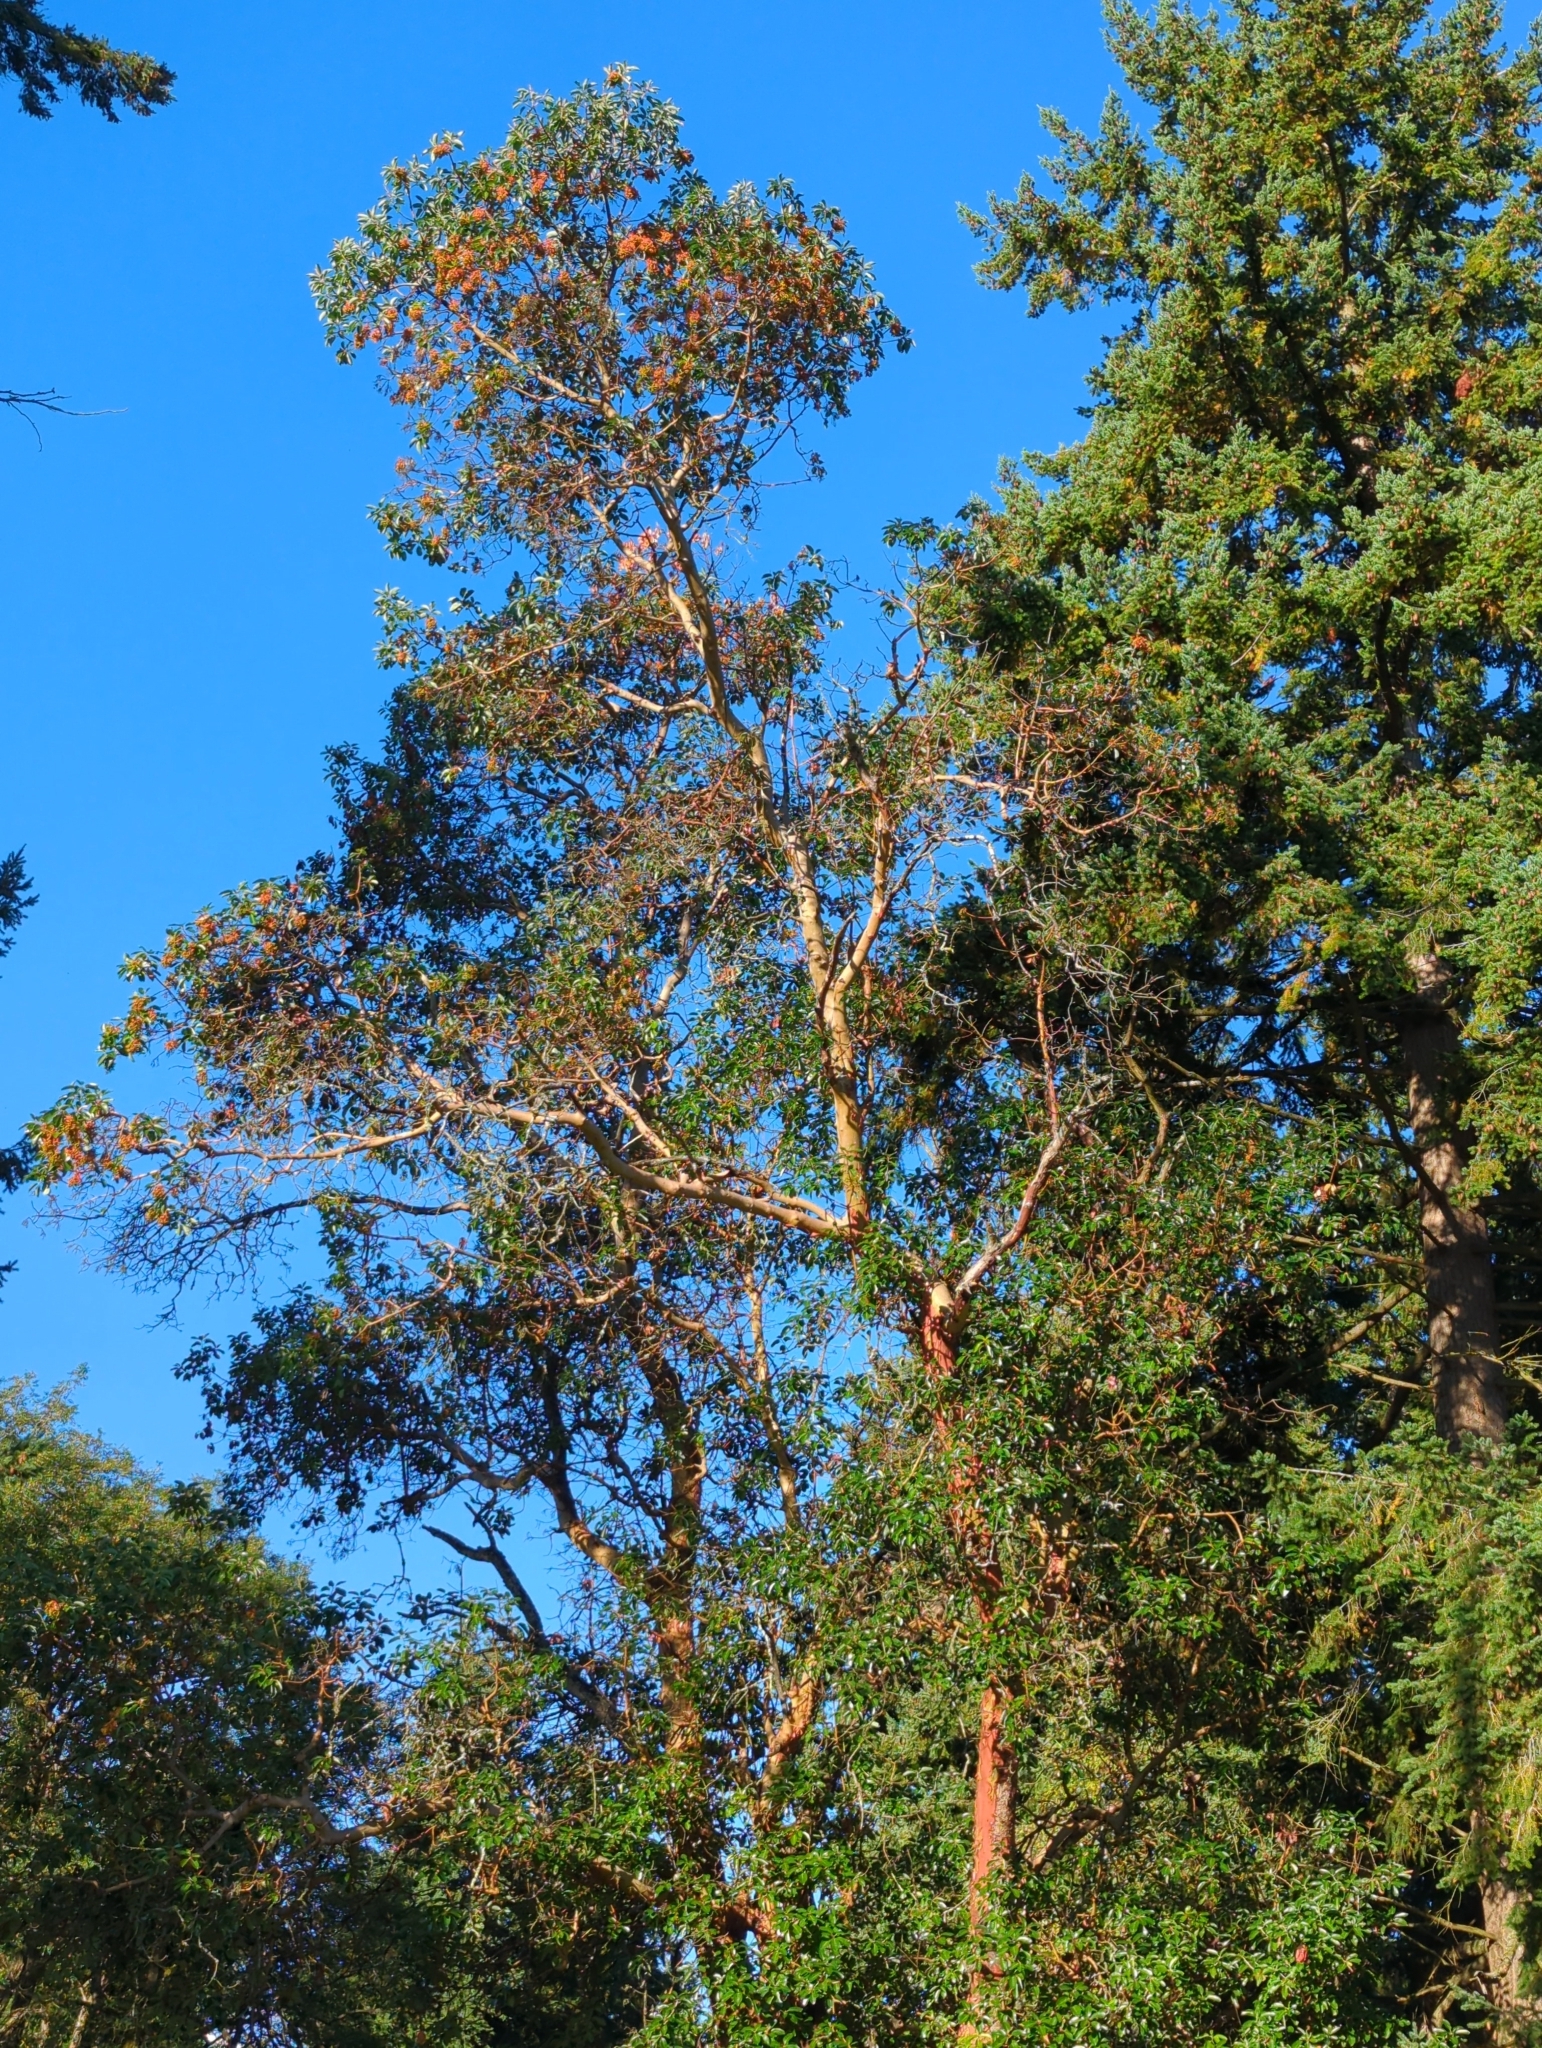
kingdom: Plantae
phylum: Tracheophyta
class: Magnoliopsida
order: Ericales
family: Ericaceae
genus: Arbutus
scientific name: Arbutus menziesii
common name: Pacific madrone
